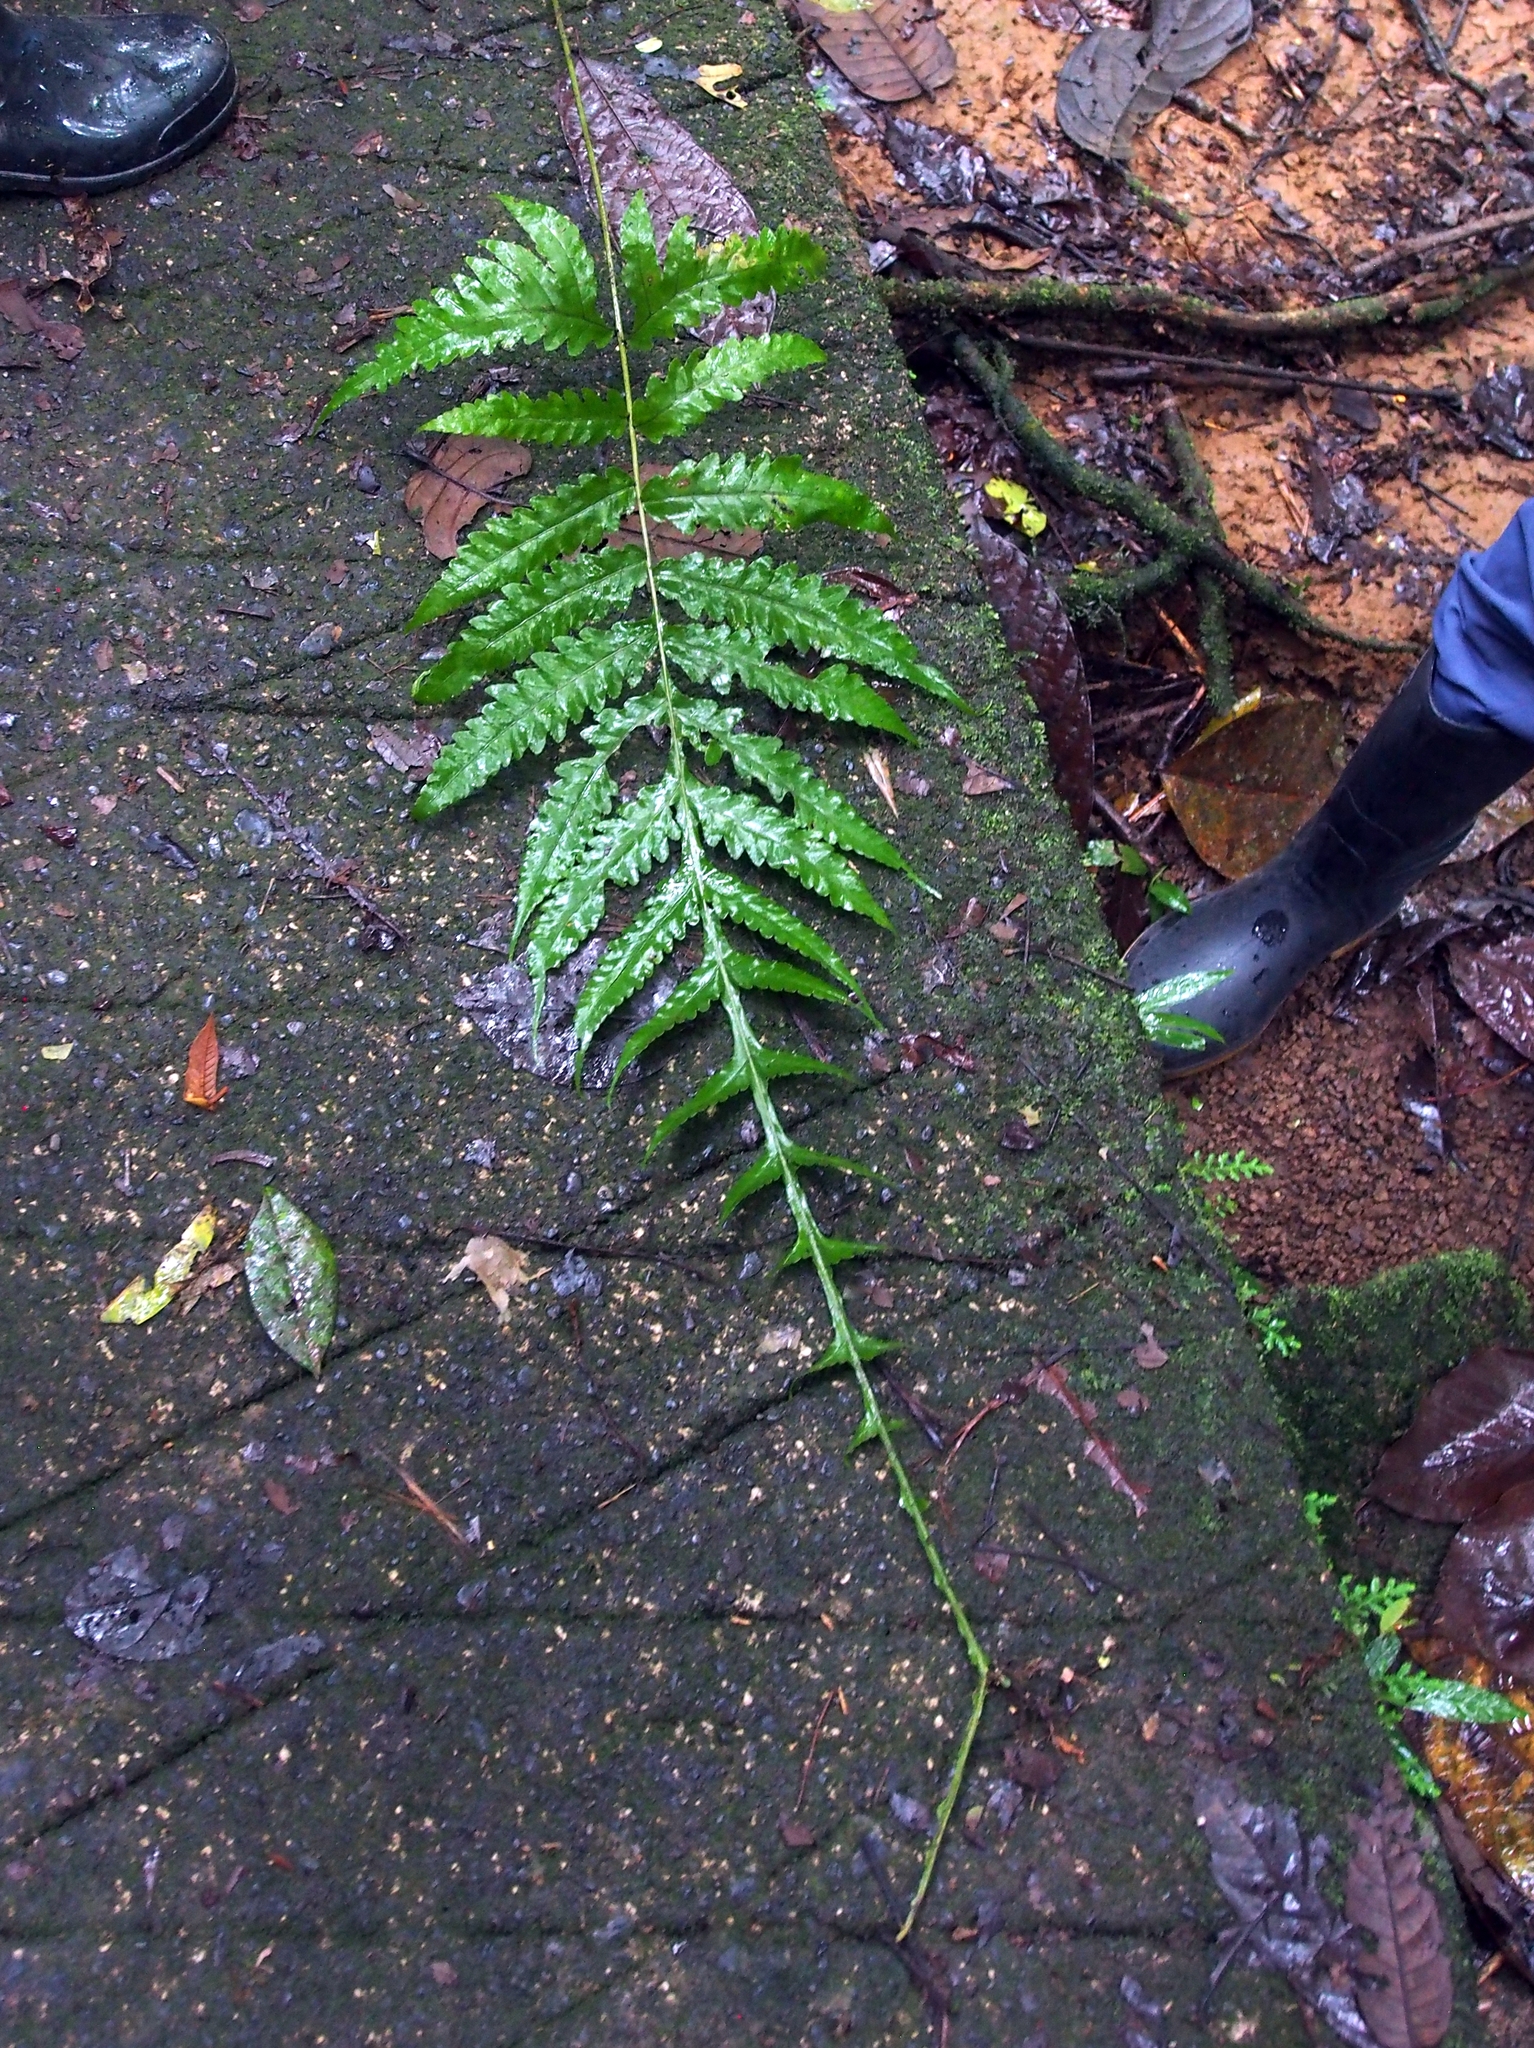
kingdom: Plantae
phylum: Tracheophyta
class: Polypodiopsida
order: Polypodiales
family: Dryopteridaceae
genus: Bolbitis
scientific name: Bolbitis portoricensis
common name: Puerto rico creepingfer
